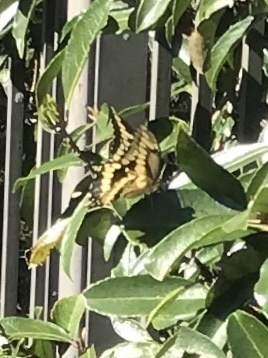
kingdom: Animalia
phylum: Arthropoda
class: Insecta
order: Lepidoptera
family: Papilionidae
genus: Papilio
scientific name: Papilio cresphontes
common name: Giant swallowtail
